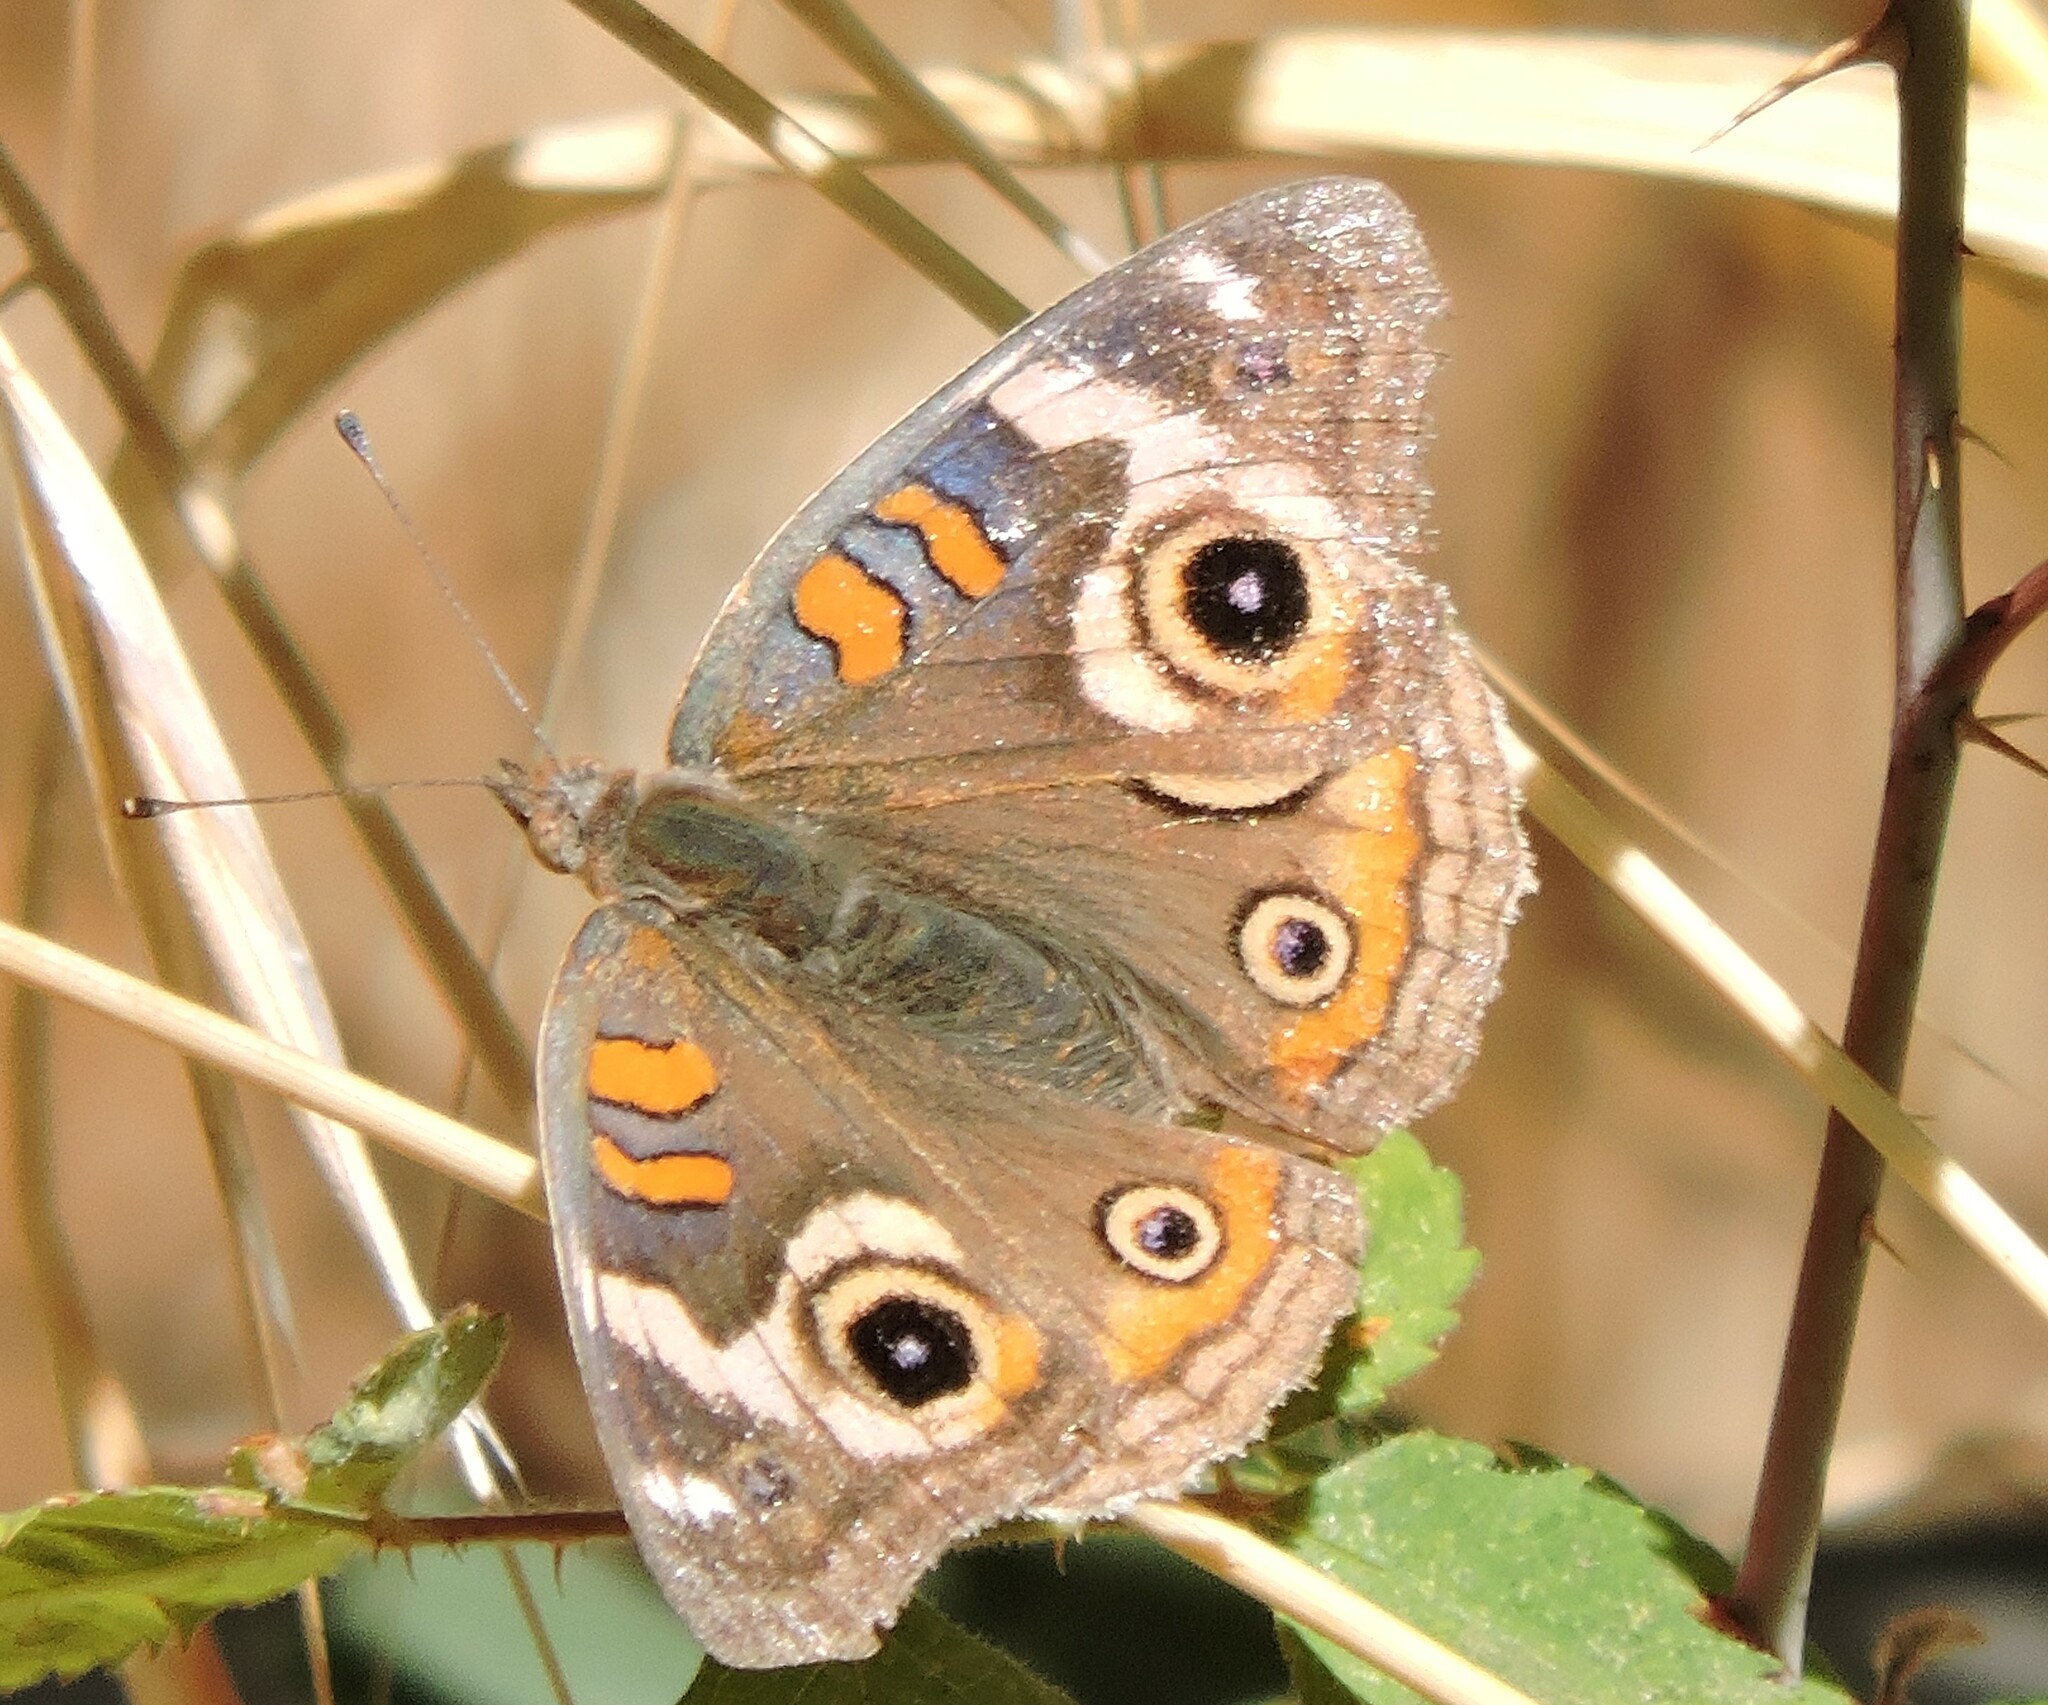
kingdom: Animalia
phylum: Arthropoda
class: Insecta
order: Lepidoptera
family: Nymphalidae
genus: Junonia
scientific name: Junonia grisea
